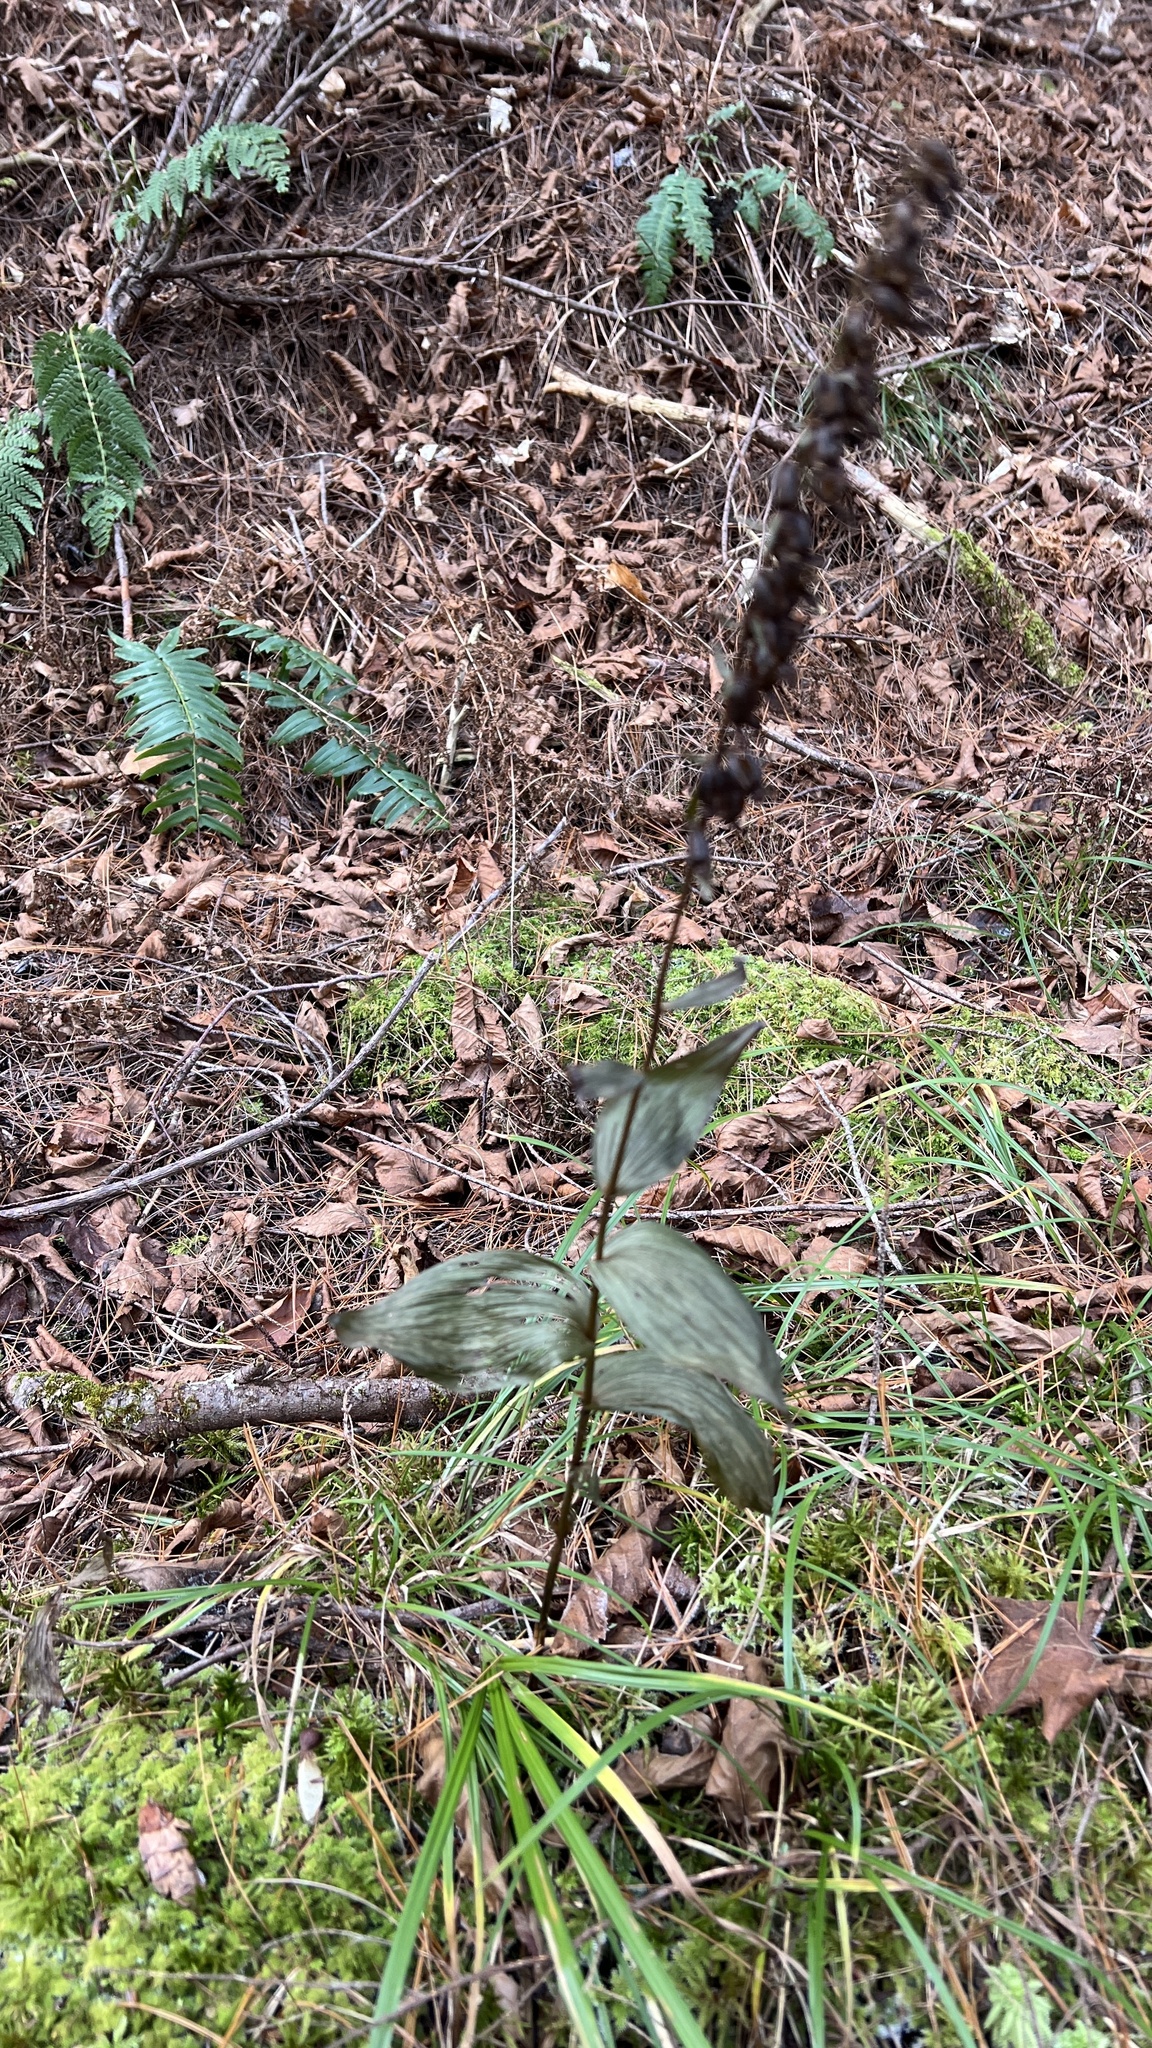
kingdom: Plantae
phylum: Tracheophyta
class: Liliopsida
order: Asparagales
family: Orchidaceae
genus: Epipactis
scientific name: Epipactis helleborine
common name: Broad-leaved helleborine
